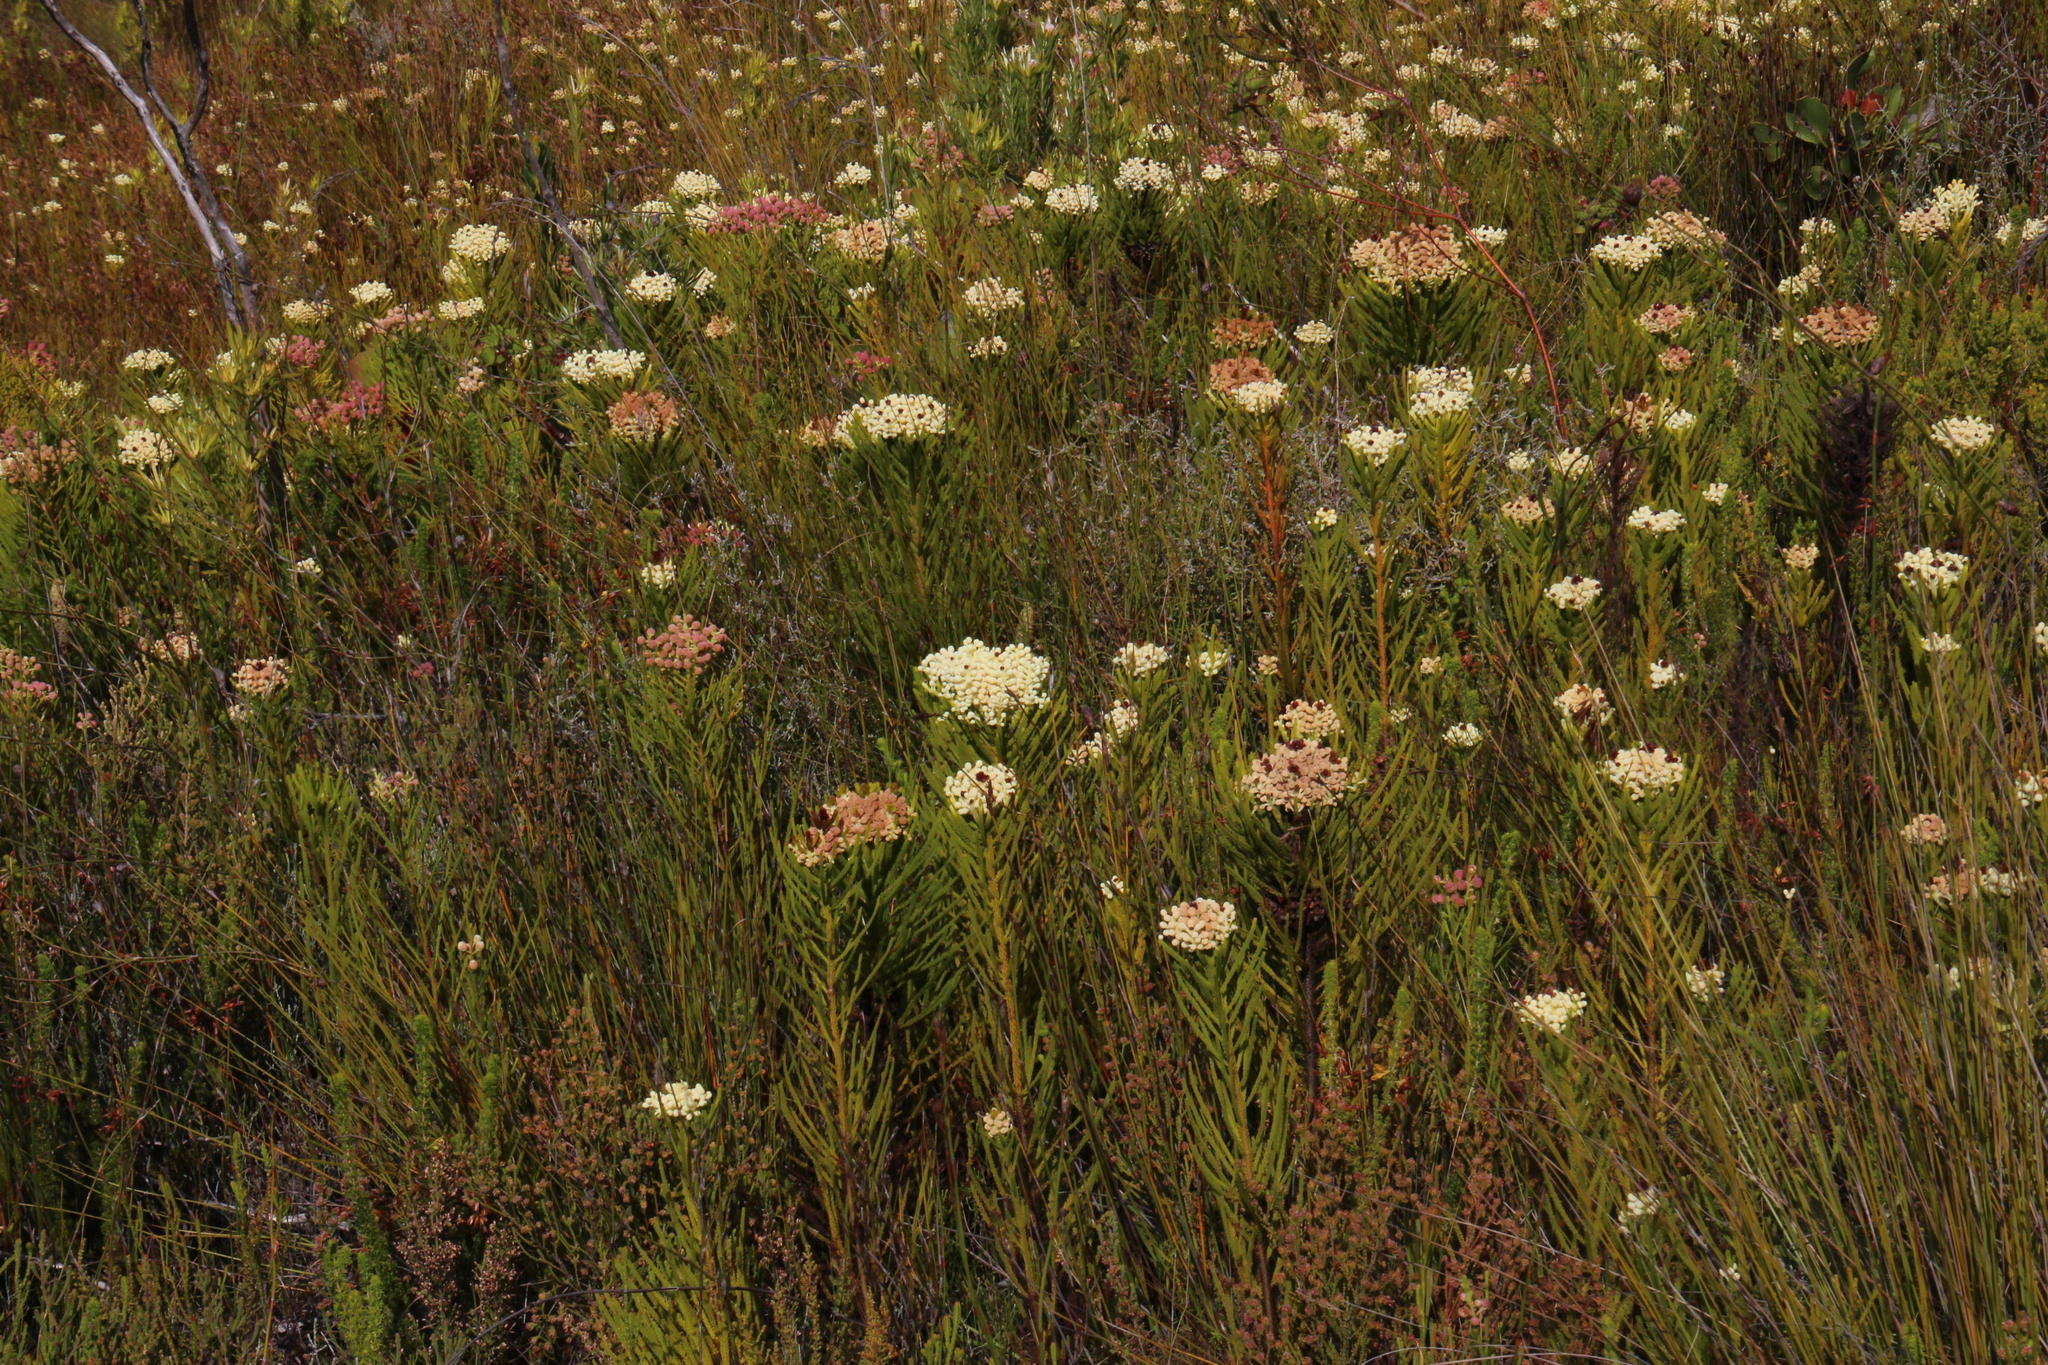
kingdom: Plantae
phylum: Tracheophyta
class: Magnoliopsida
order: Bruniales
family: Bruniaceae
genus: Berzelia
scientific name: Berzelia lanuginosa
